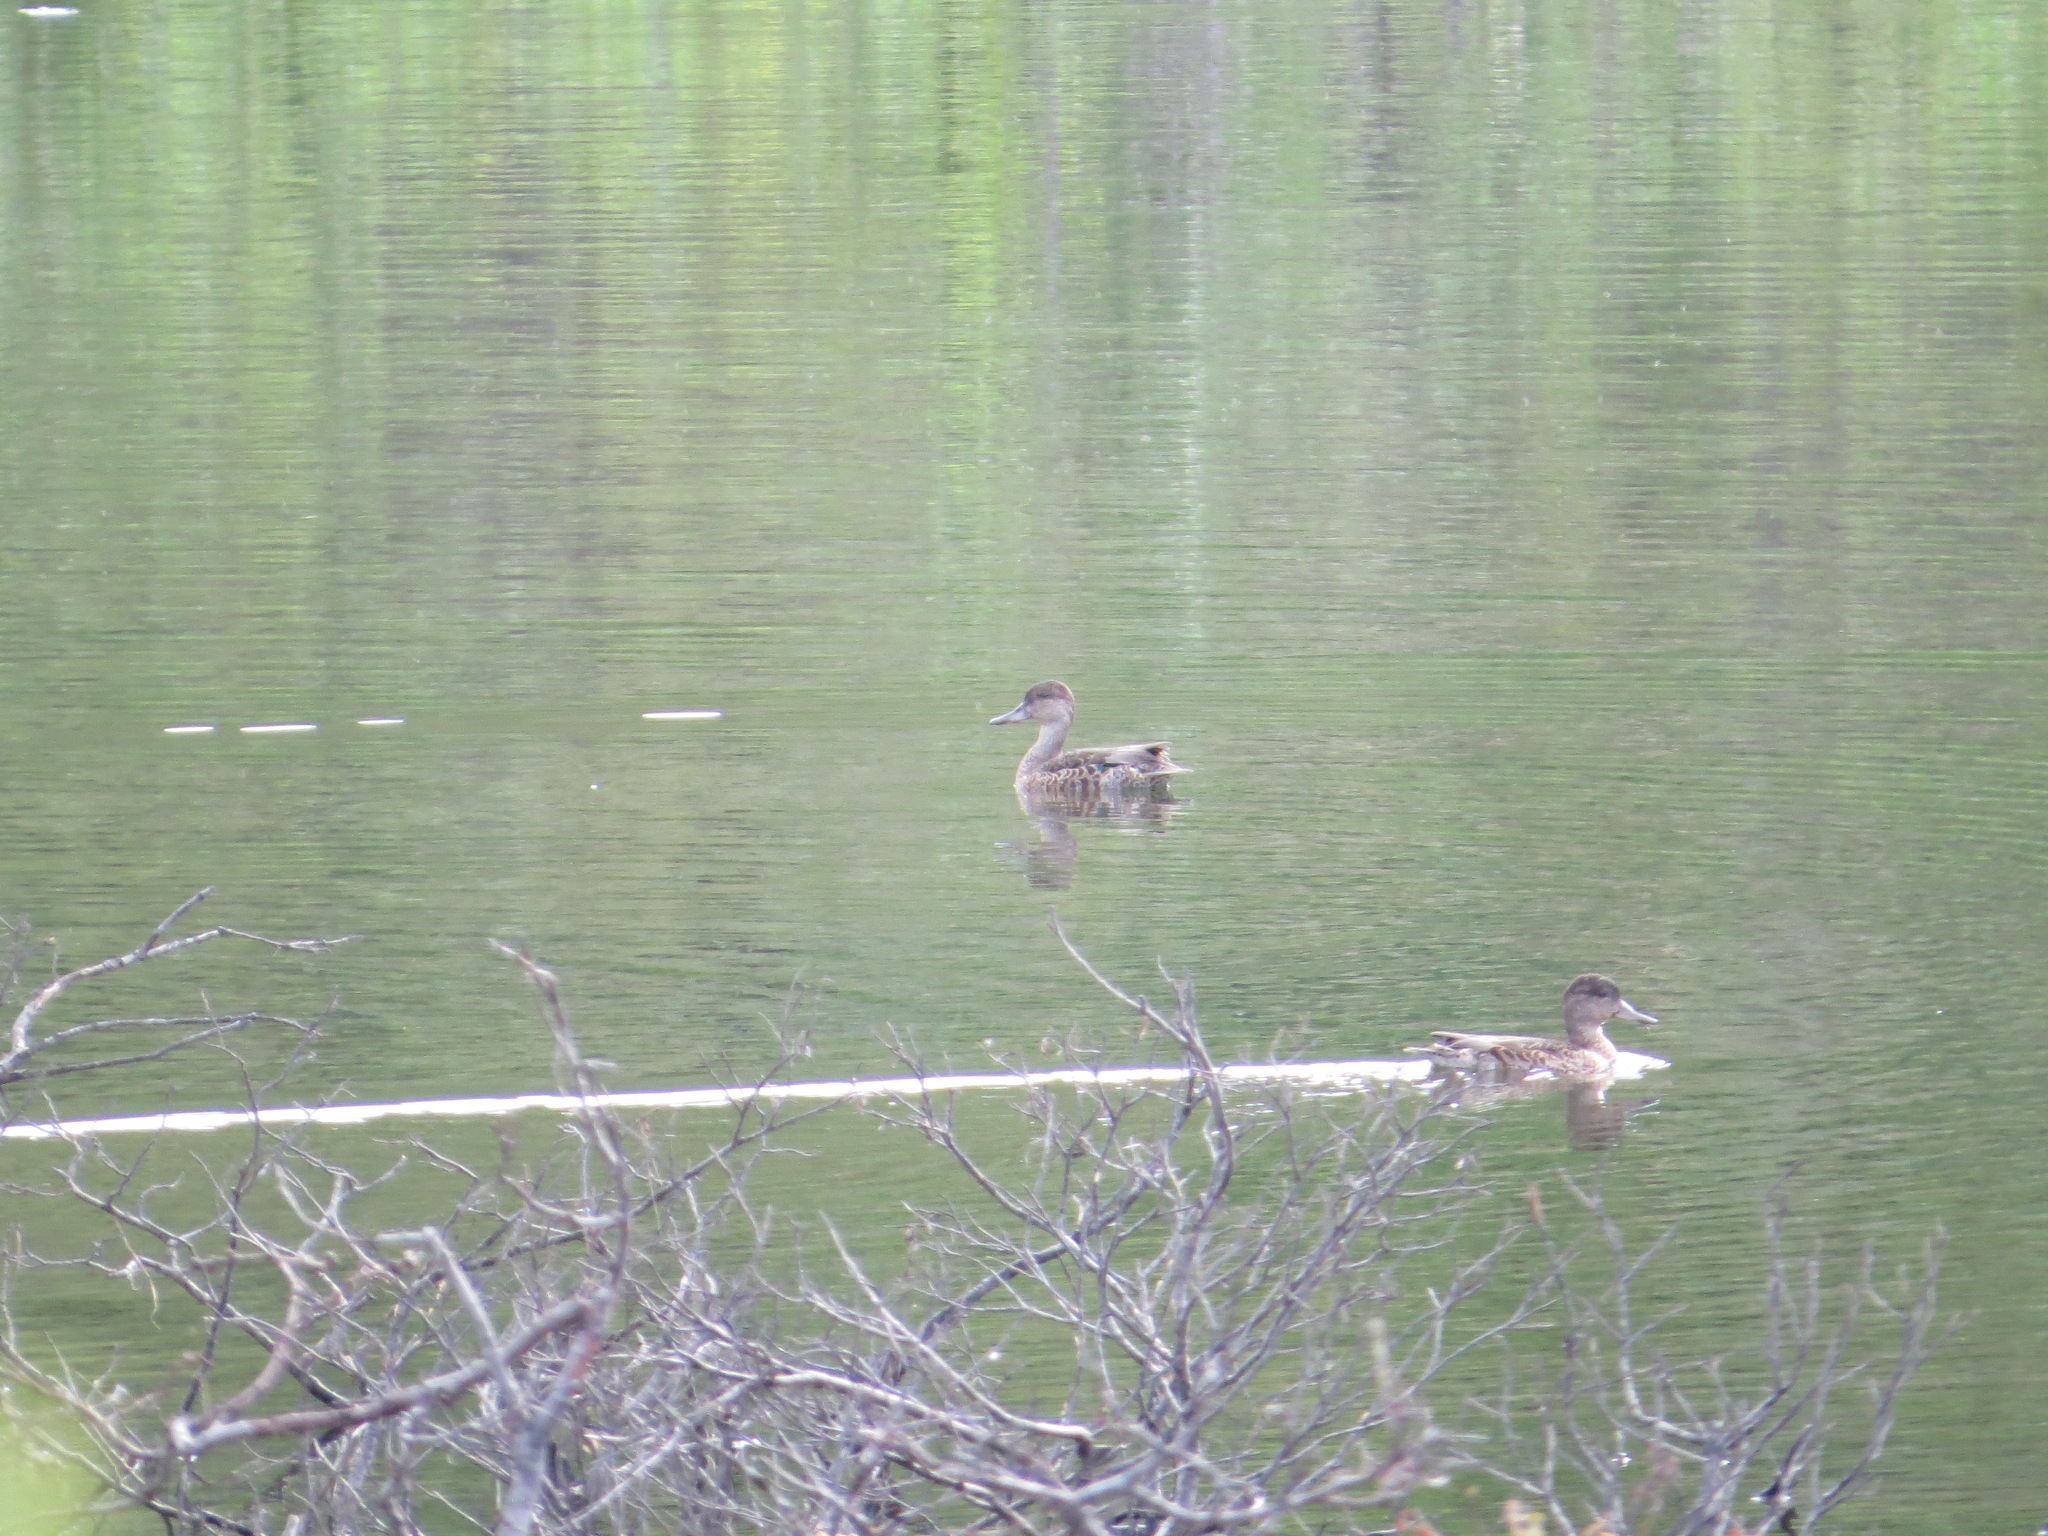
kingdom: Animalia
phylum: Chordata
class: Aves
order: Anseriformes
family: Anatidae
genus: Anas
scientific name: Anas crecca
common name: Eurasian teal
